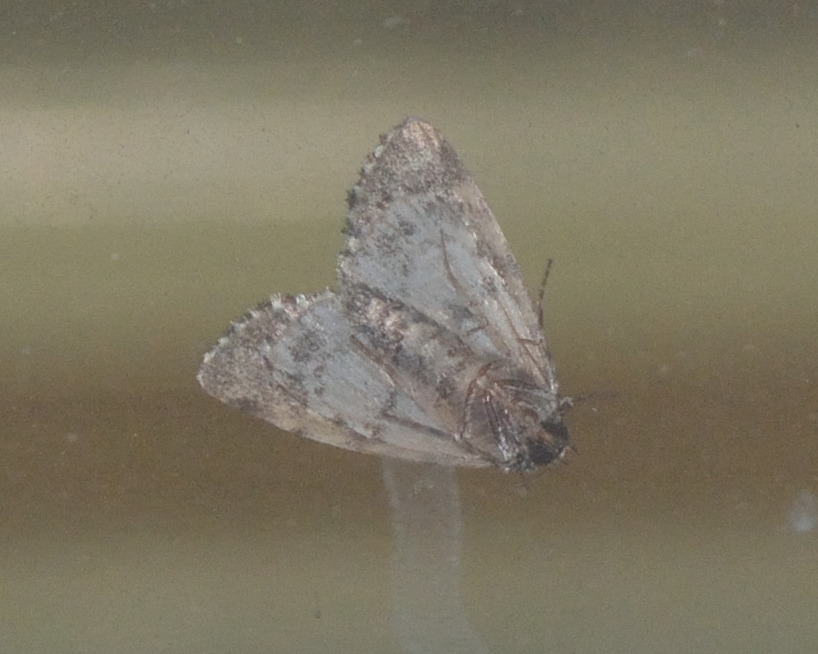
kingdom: Animalia
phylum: Arthropoda
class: Insecta
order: Lepidoptera
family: Noctuidae
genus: Moma
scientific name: Moma alpium
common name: Scarce merveille du jour
